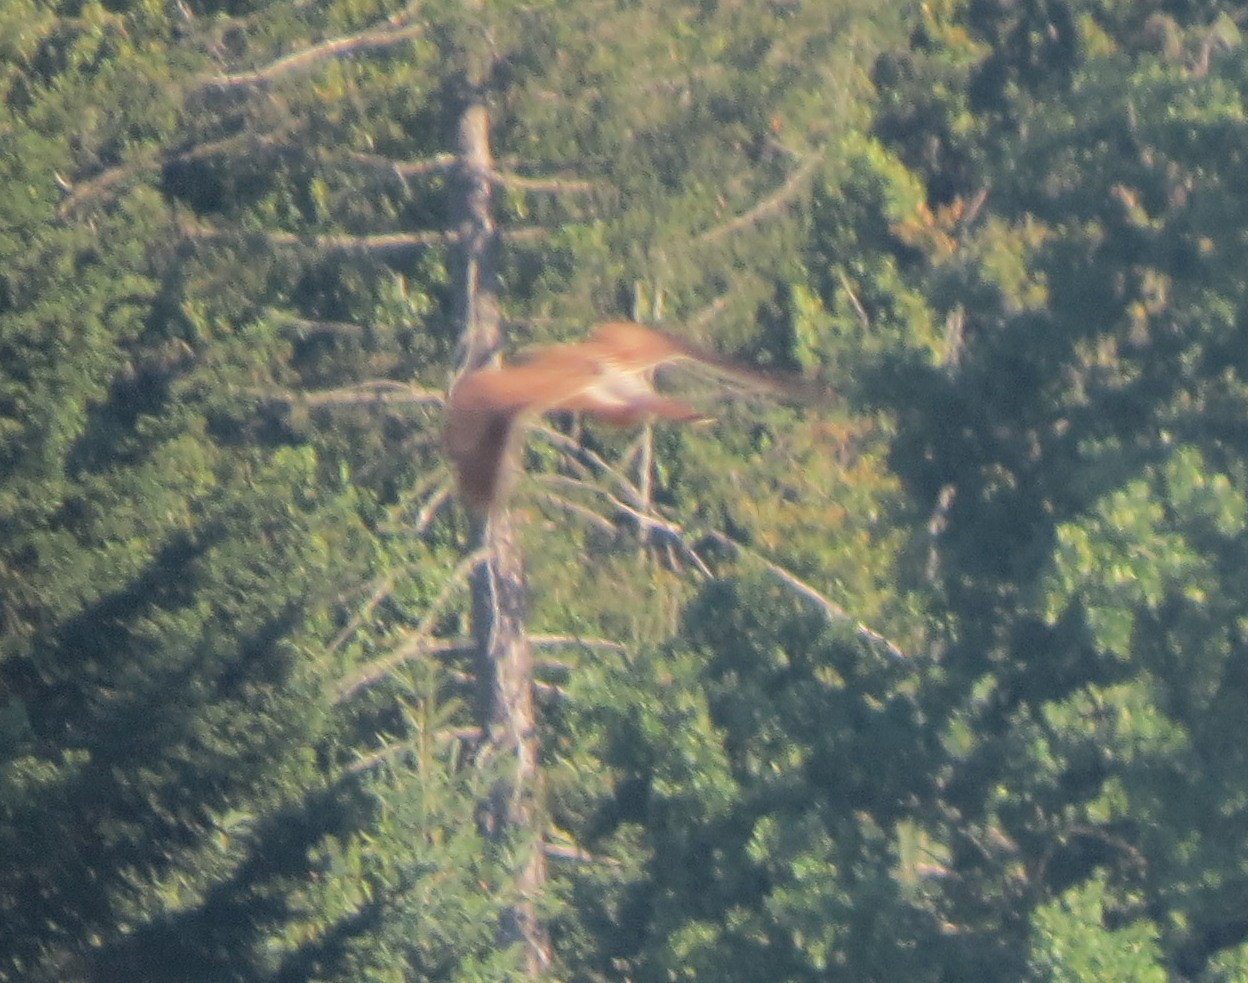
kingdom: Animalia
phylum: Chordata
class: Aves
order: Falconiformes
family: Falconidae
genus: Falco
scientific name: Falco tinnunculus
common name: Common kestrel
